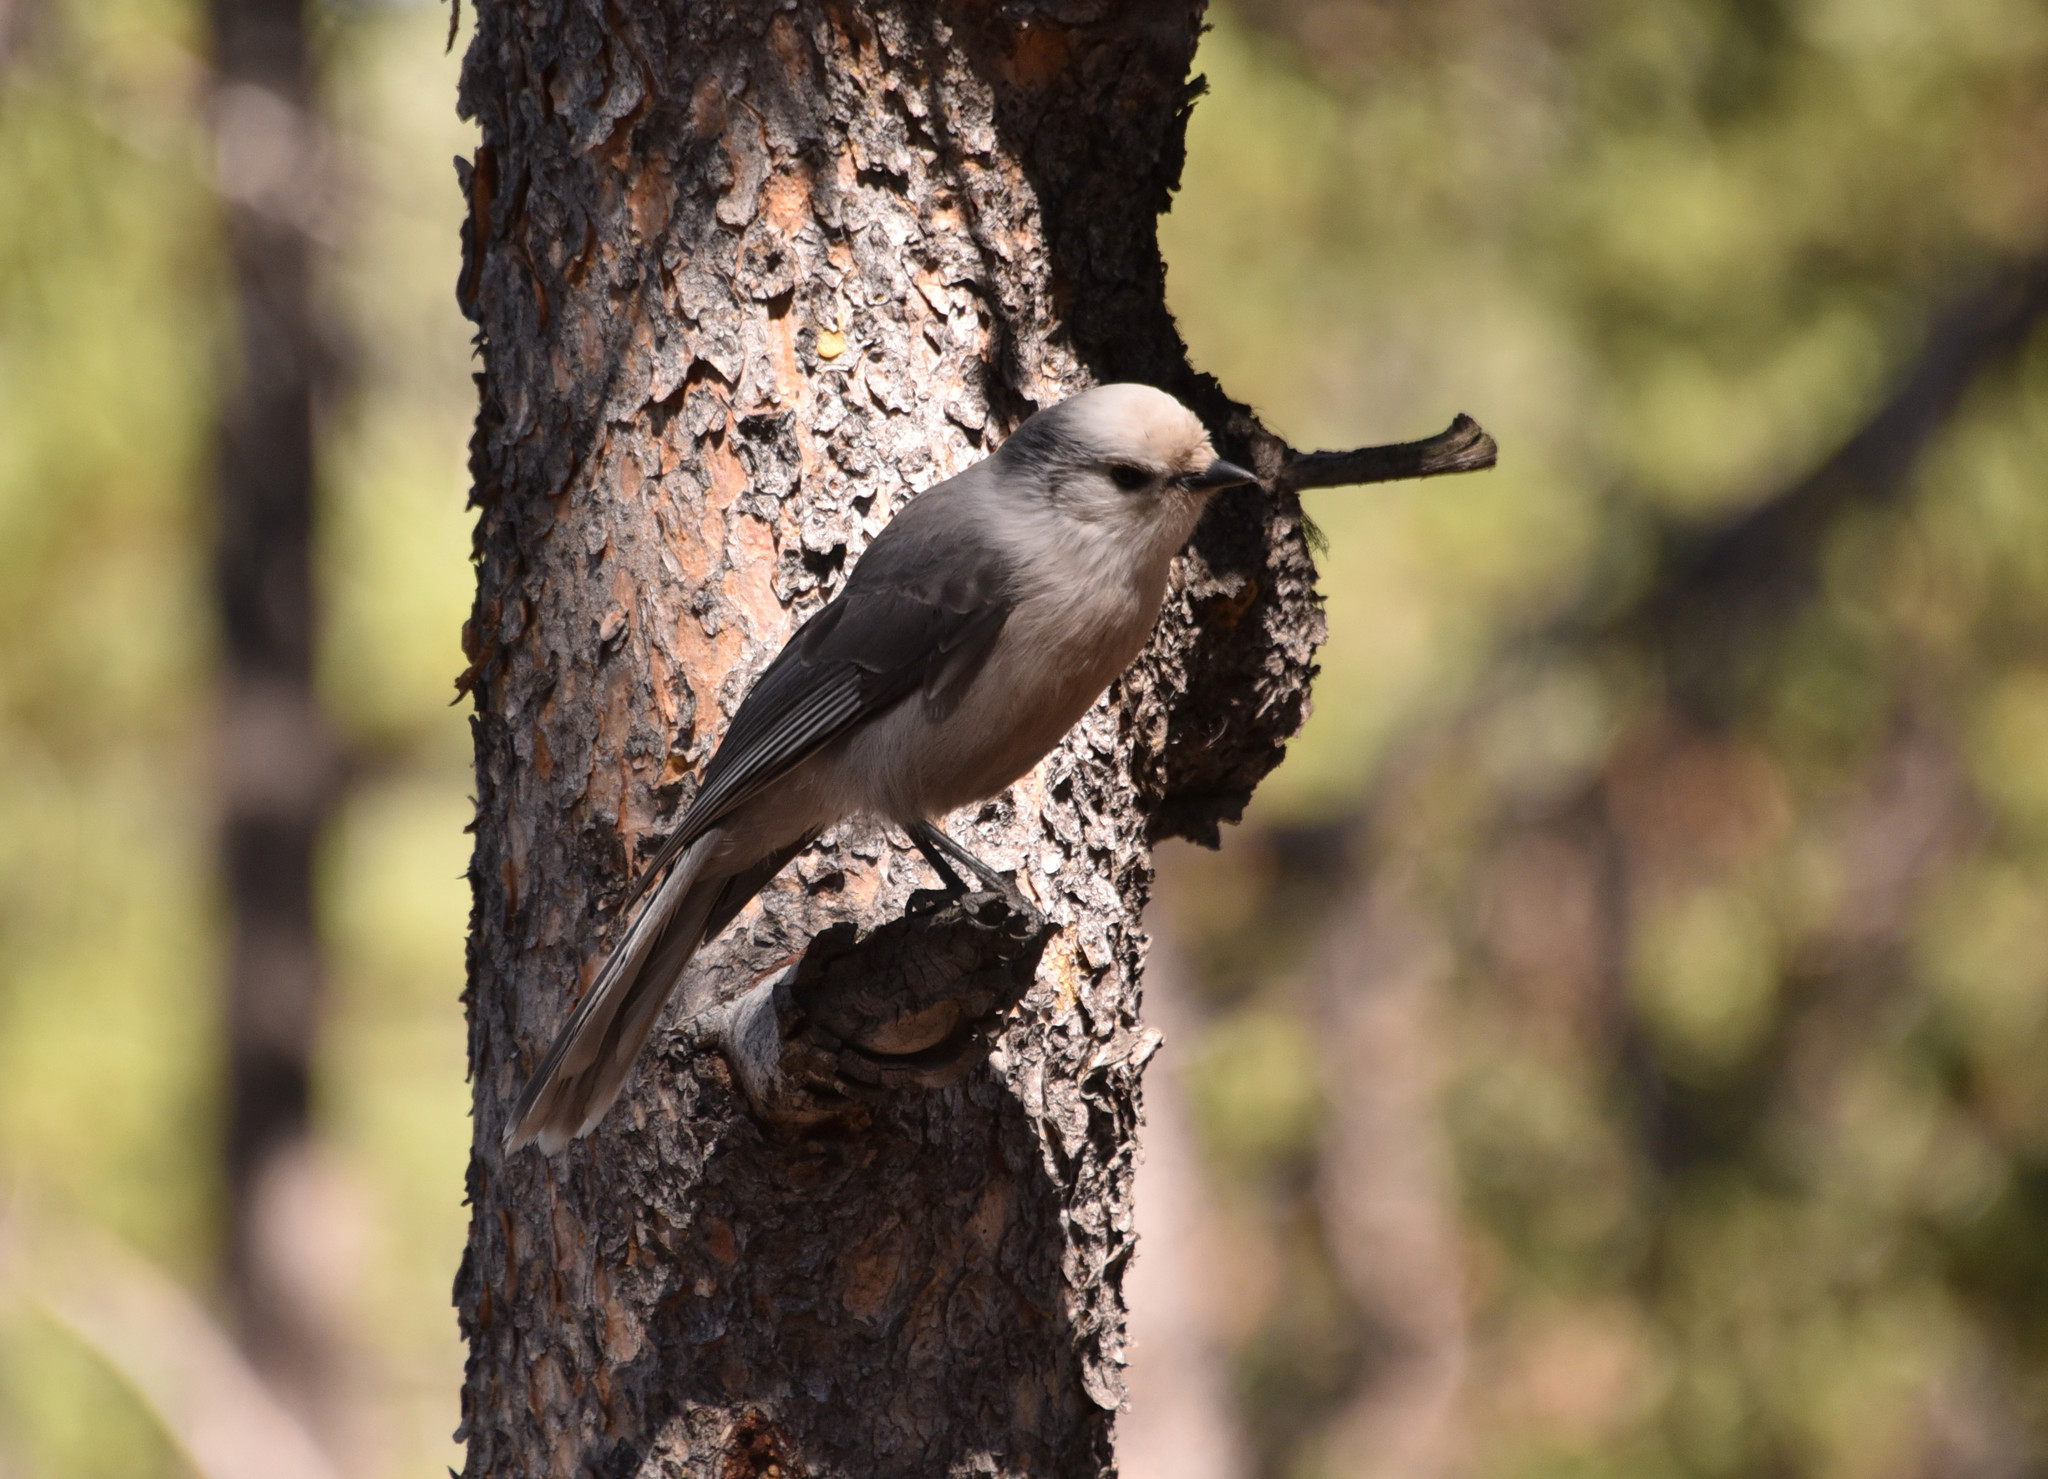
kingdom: Animalia
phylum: Chordata
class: Aves
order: Passeriformes
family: Corvidae
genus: Perisoreus
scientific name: Perisoreus canadensis
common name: Gray jay
